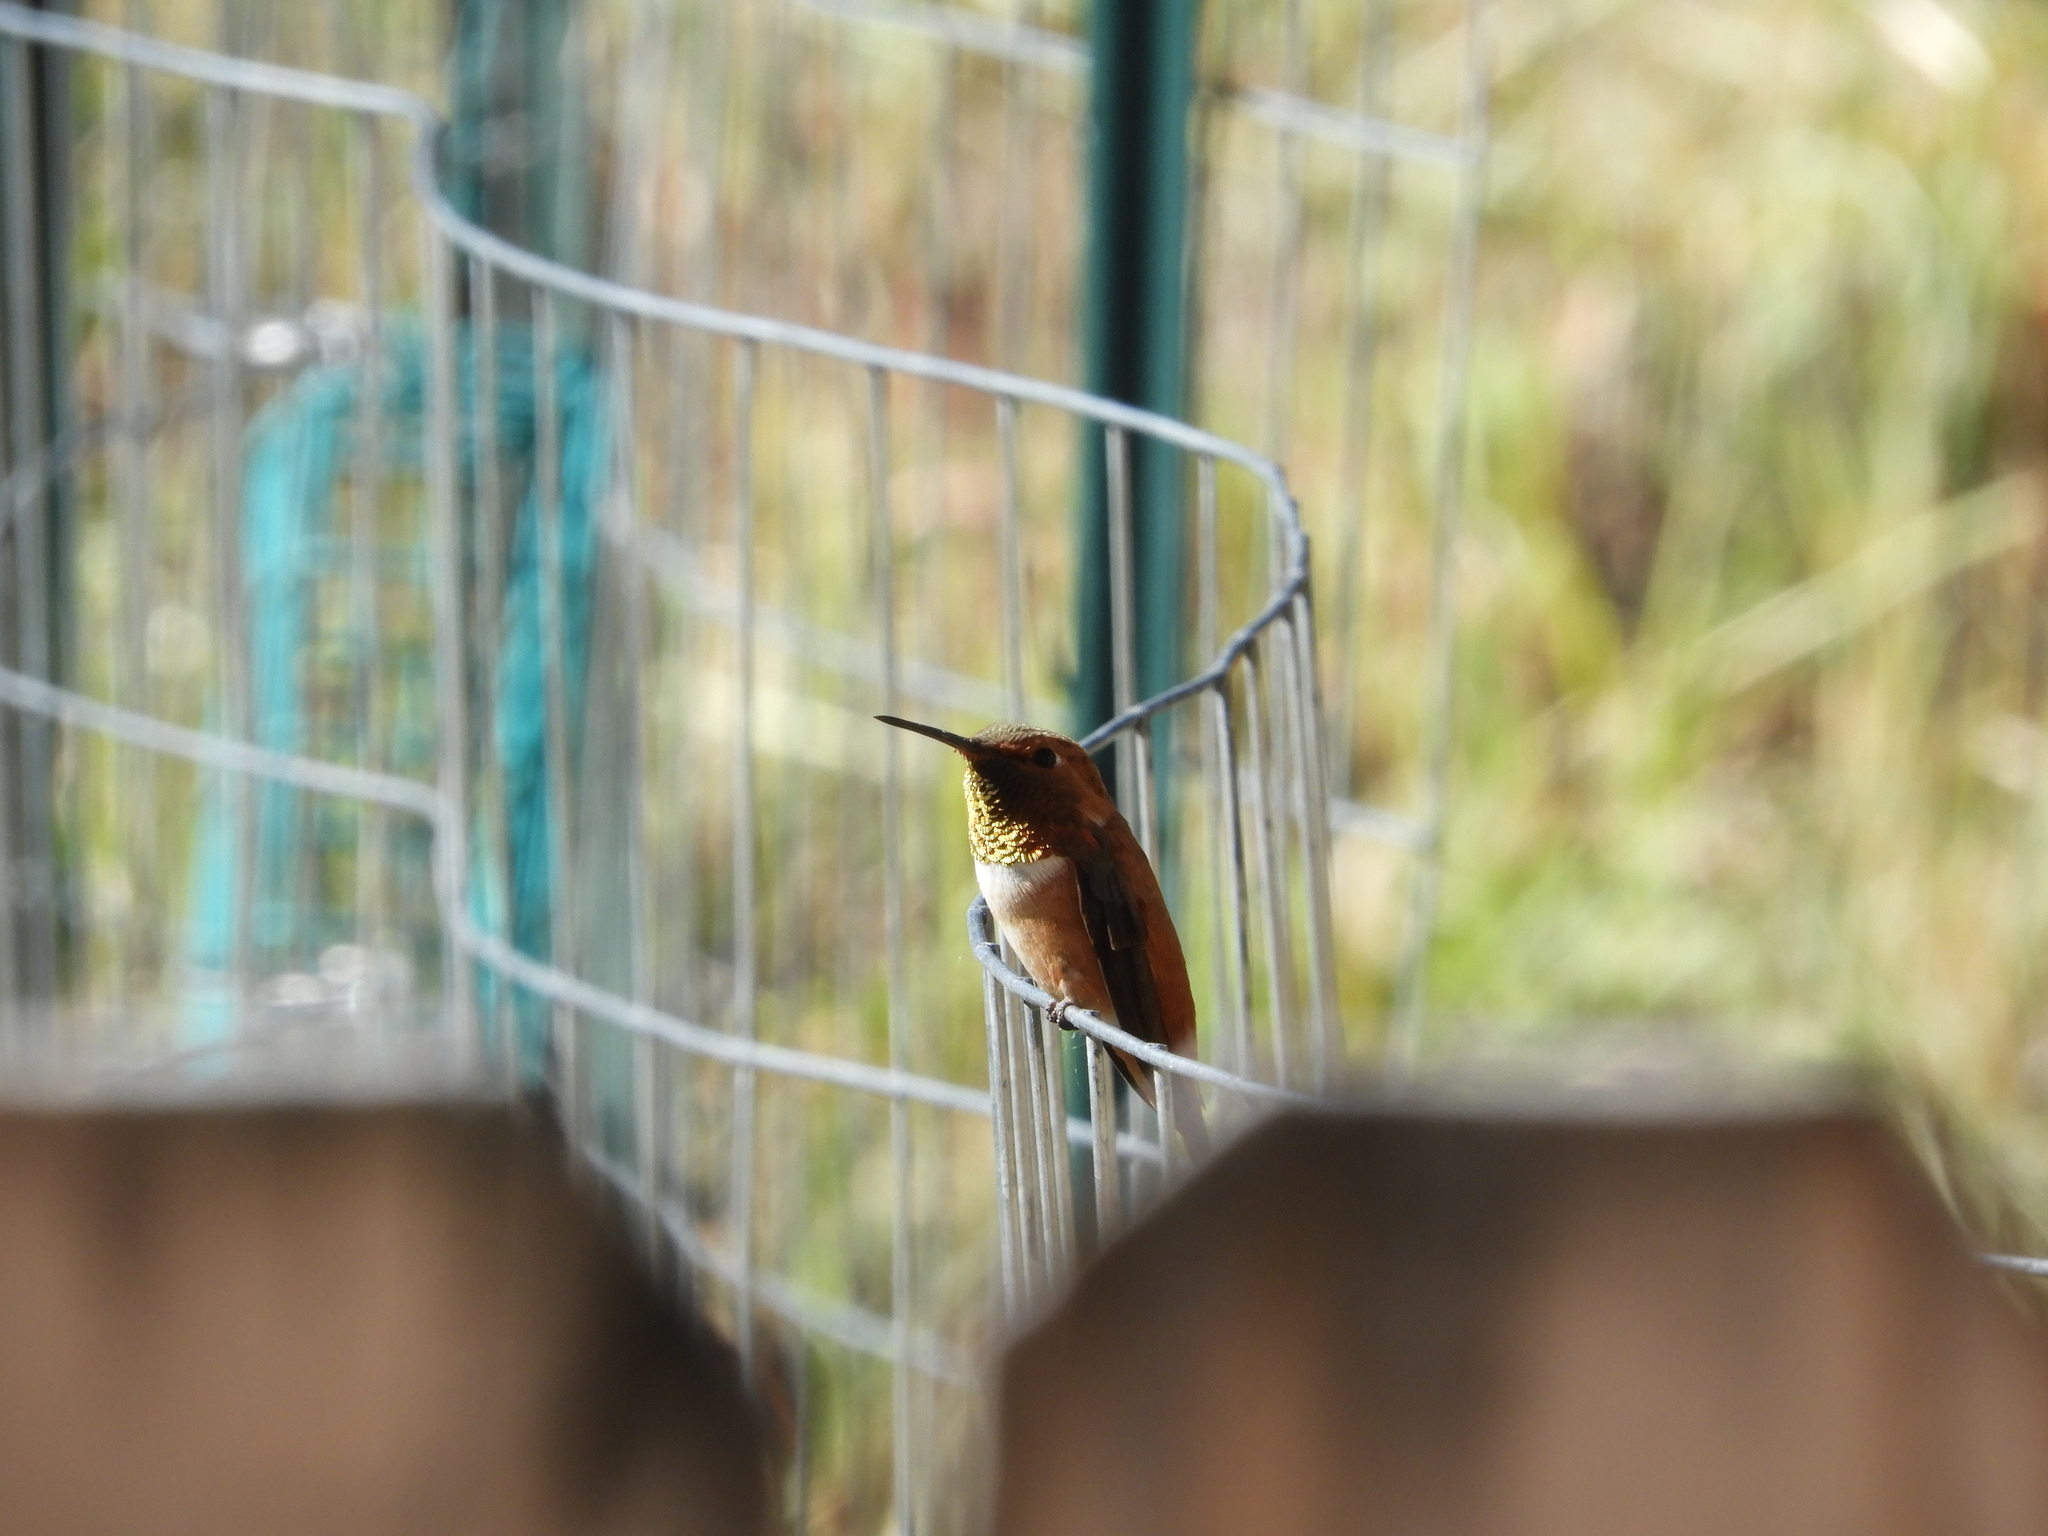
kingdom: Animalia
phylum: Chordata
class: Aves
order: Apodiformes
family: Trochilidae
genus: Selasphorus
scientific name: Selasphorus rufus
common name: Rufous hummingbird
